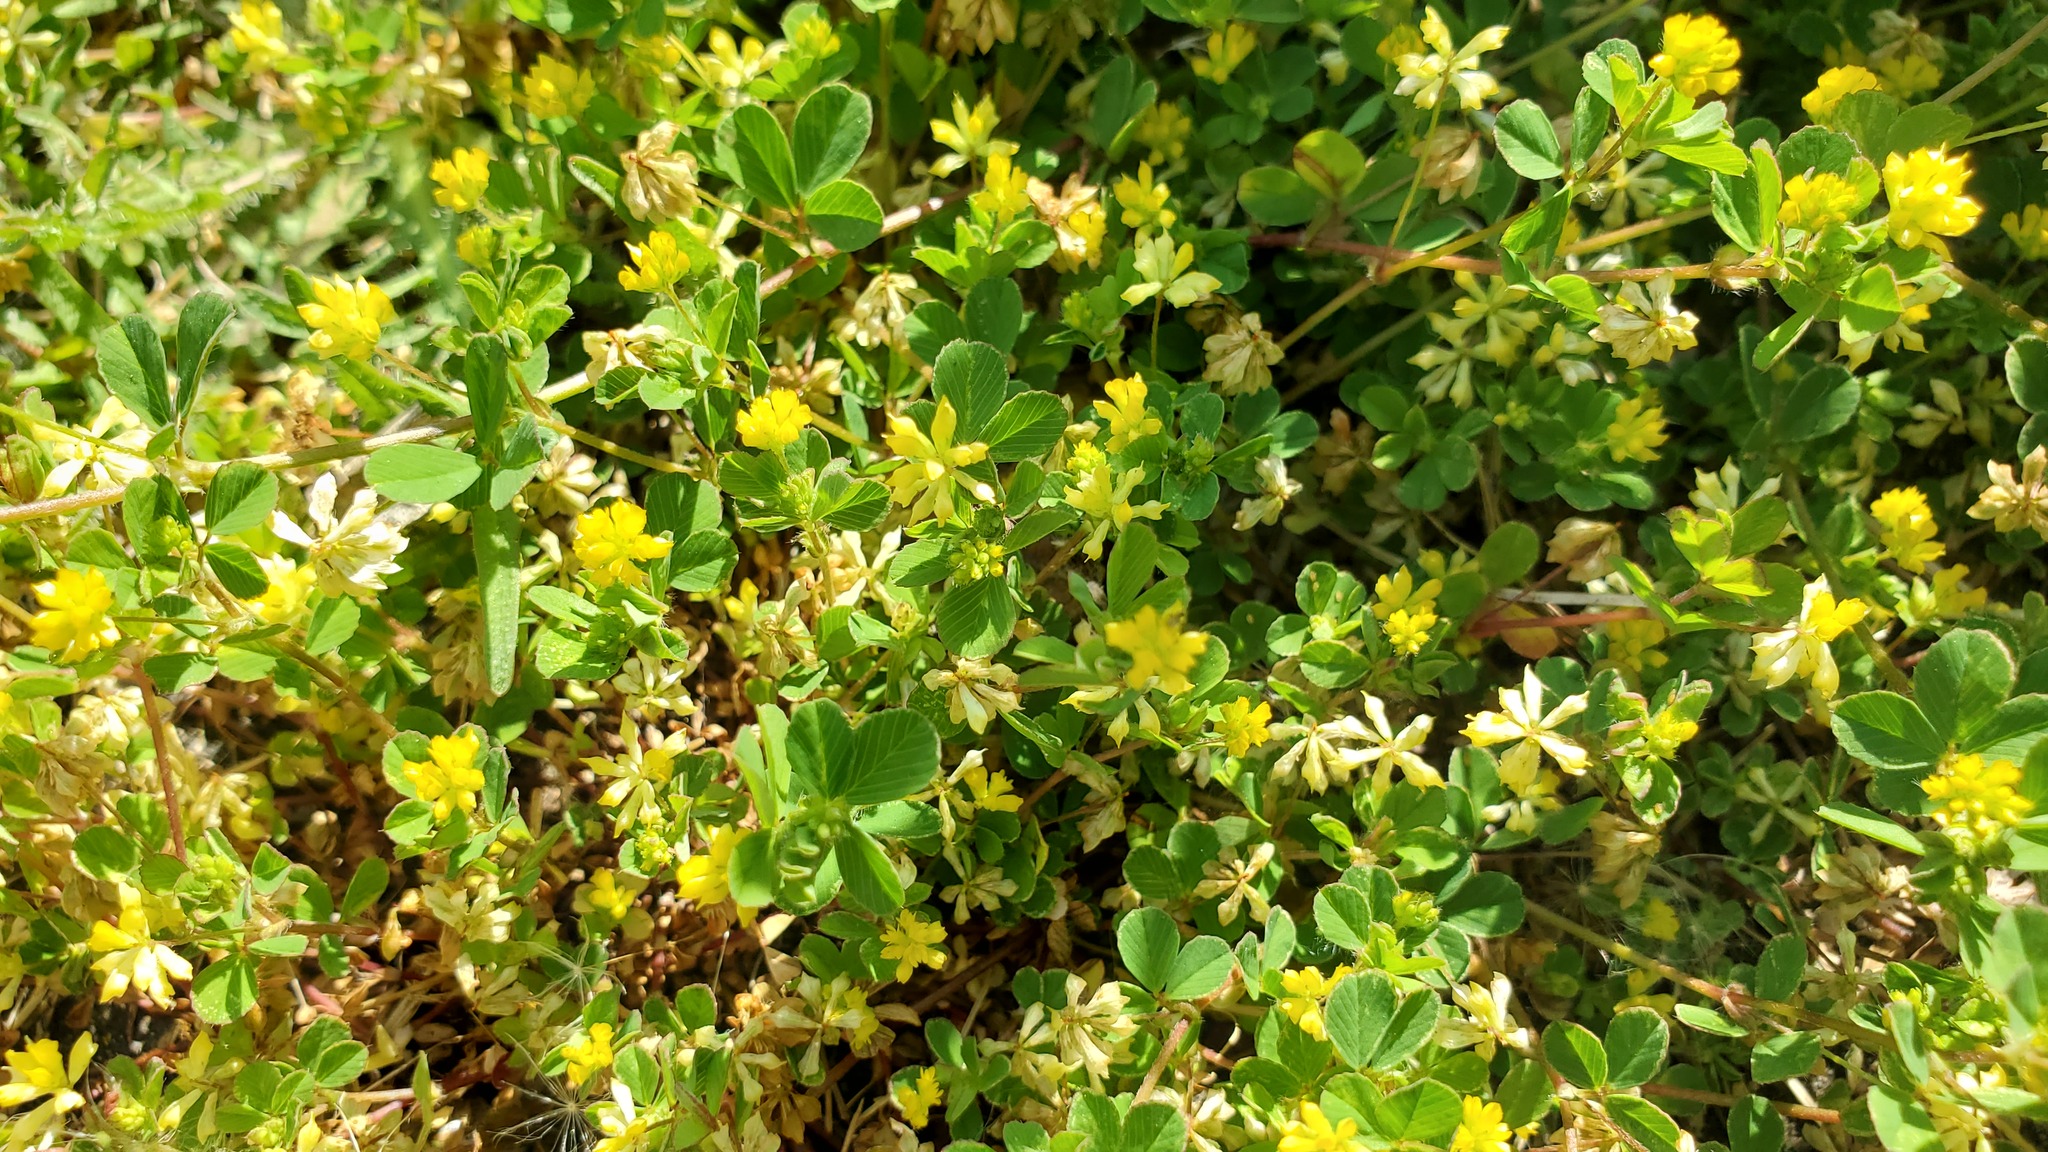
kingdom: Plantae
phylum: Tracheophyta
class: Magnoliopsida
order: Fabales
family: Fabaceae
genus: Trifolium
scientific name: Trifolium dubium
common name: Suckling clover
